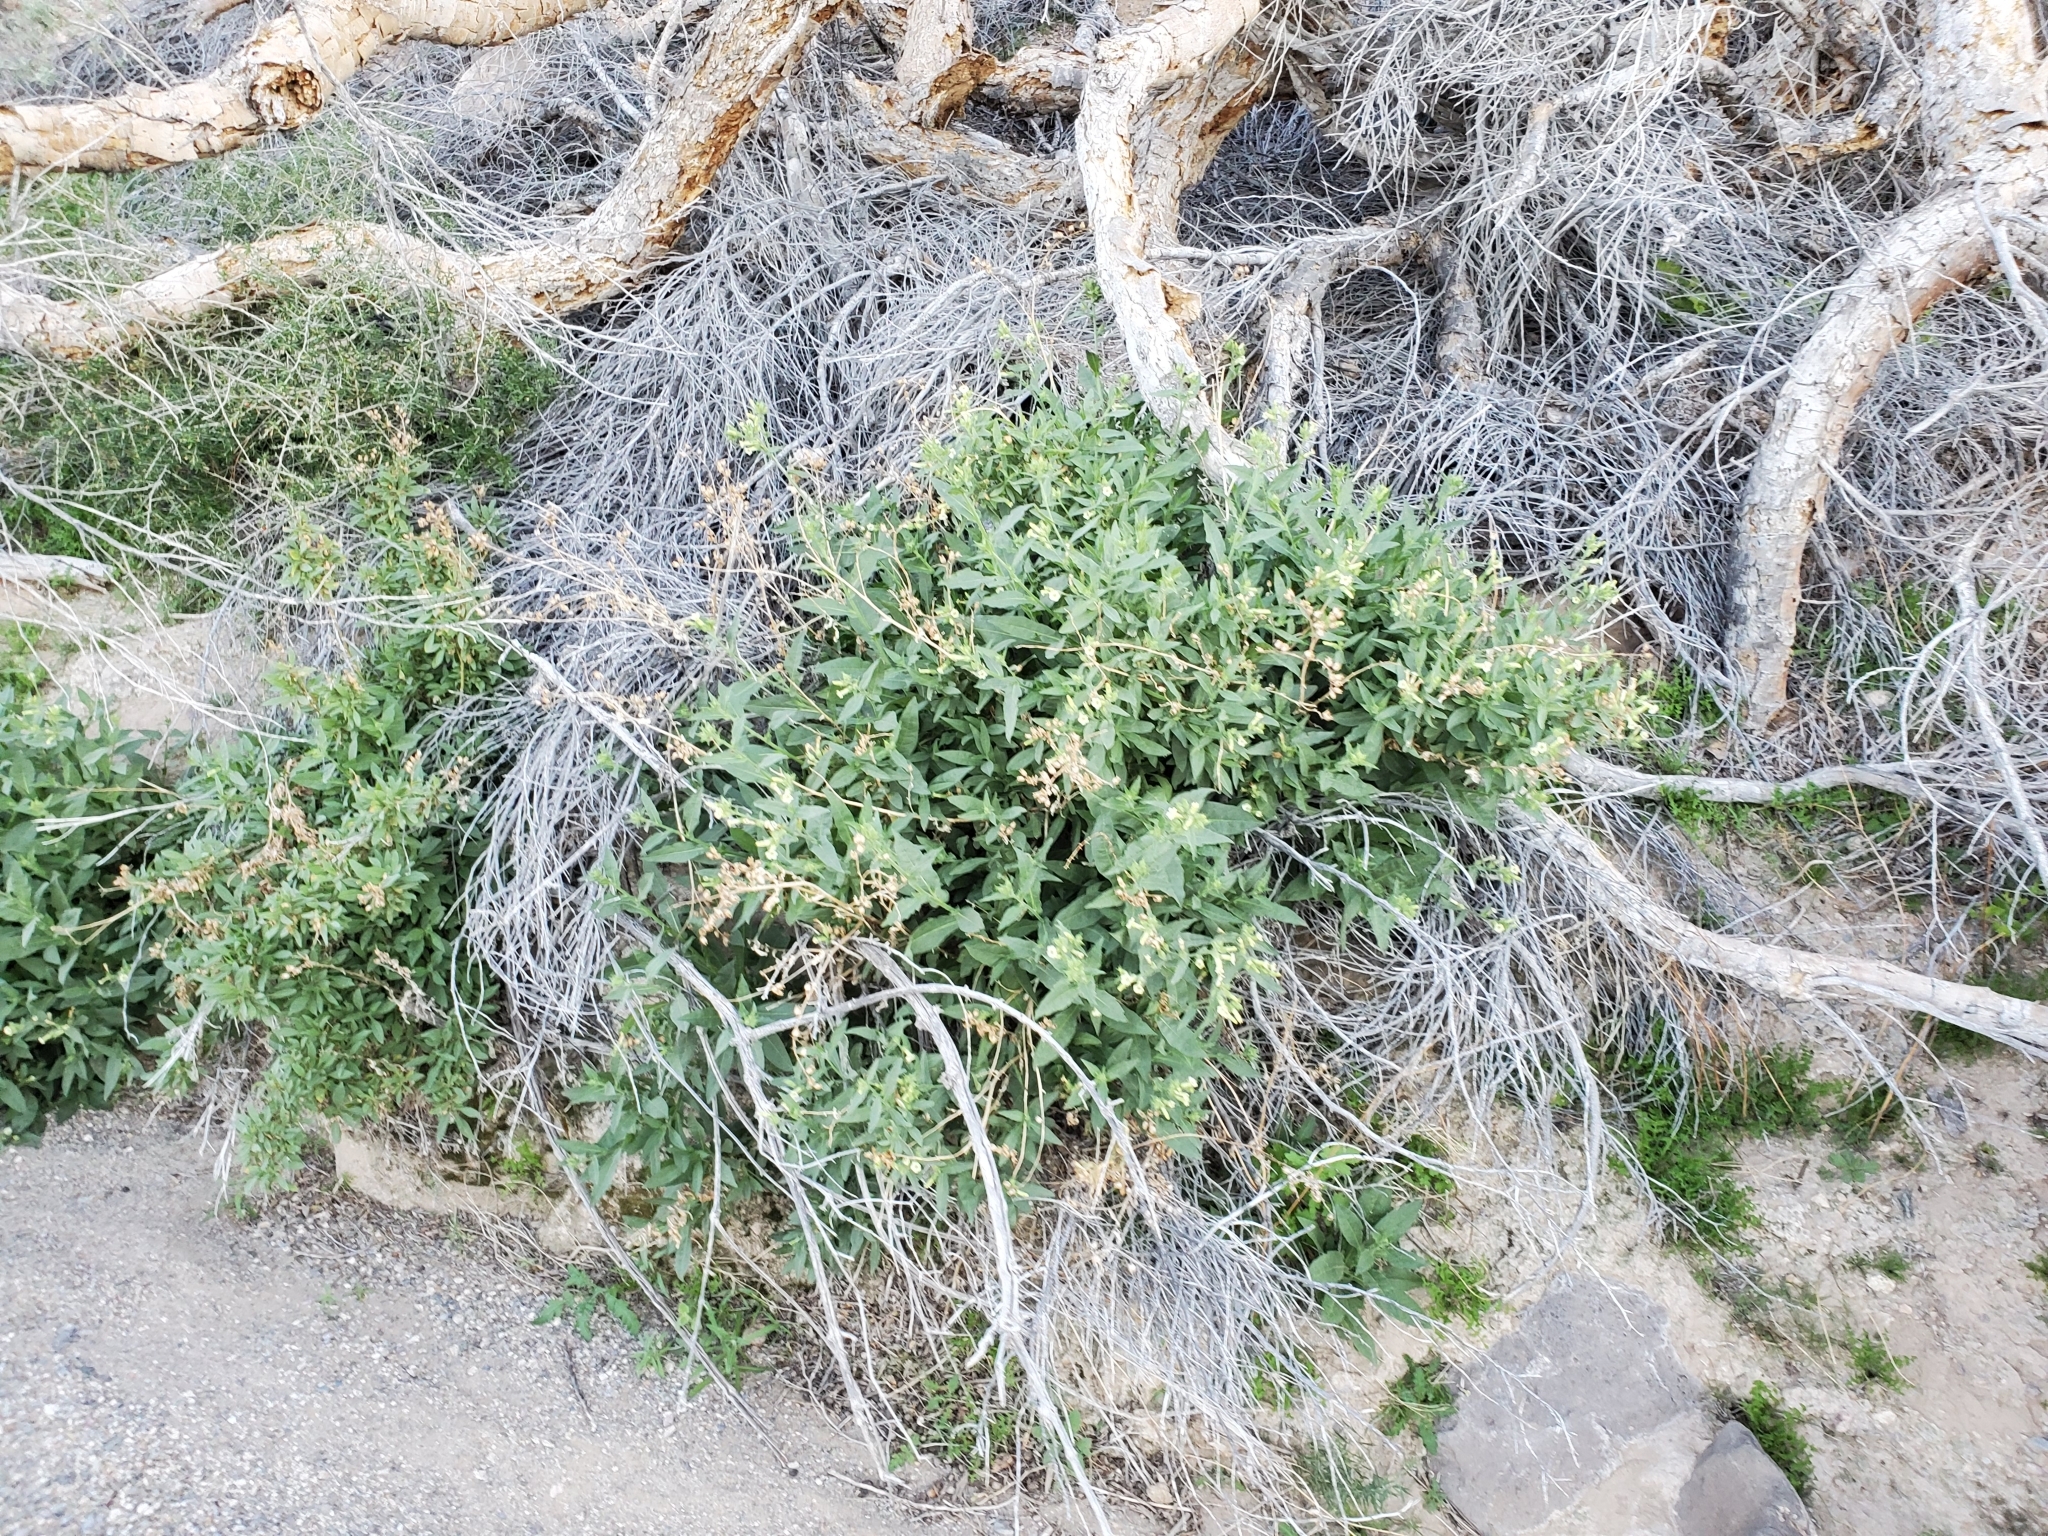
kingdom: Plantae
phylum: Tracheophyta
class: Magnoliopsida
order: Solanales
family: Solanaceae
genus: Nicotiana
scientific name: Nicotiana obtusifolia
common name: Desert tobacco
